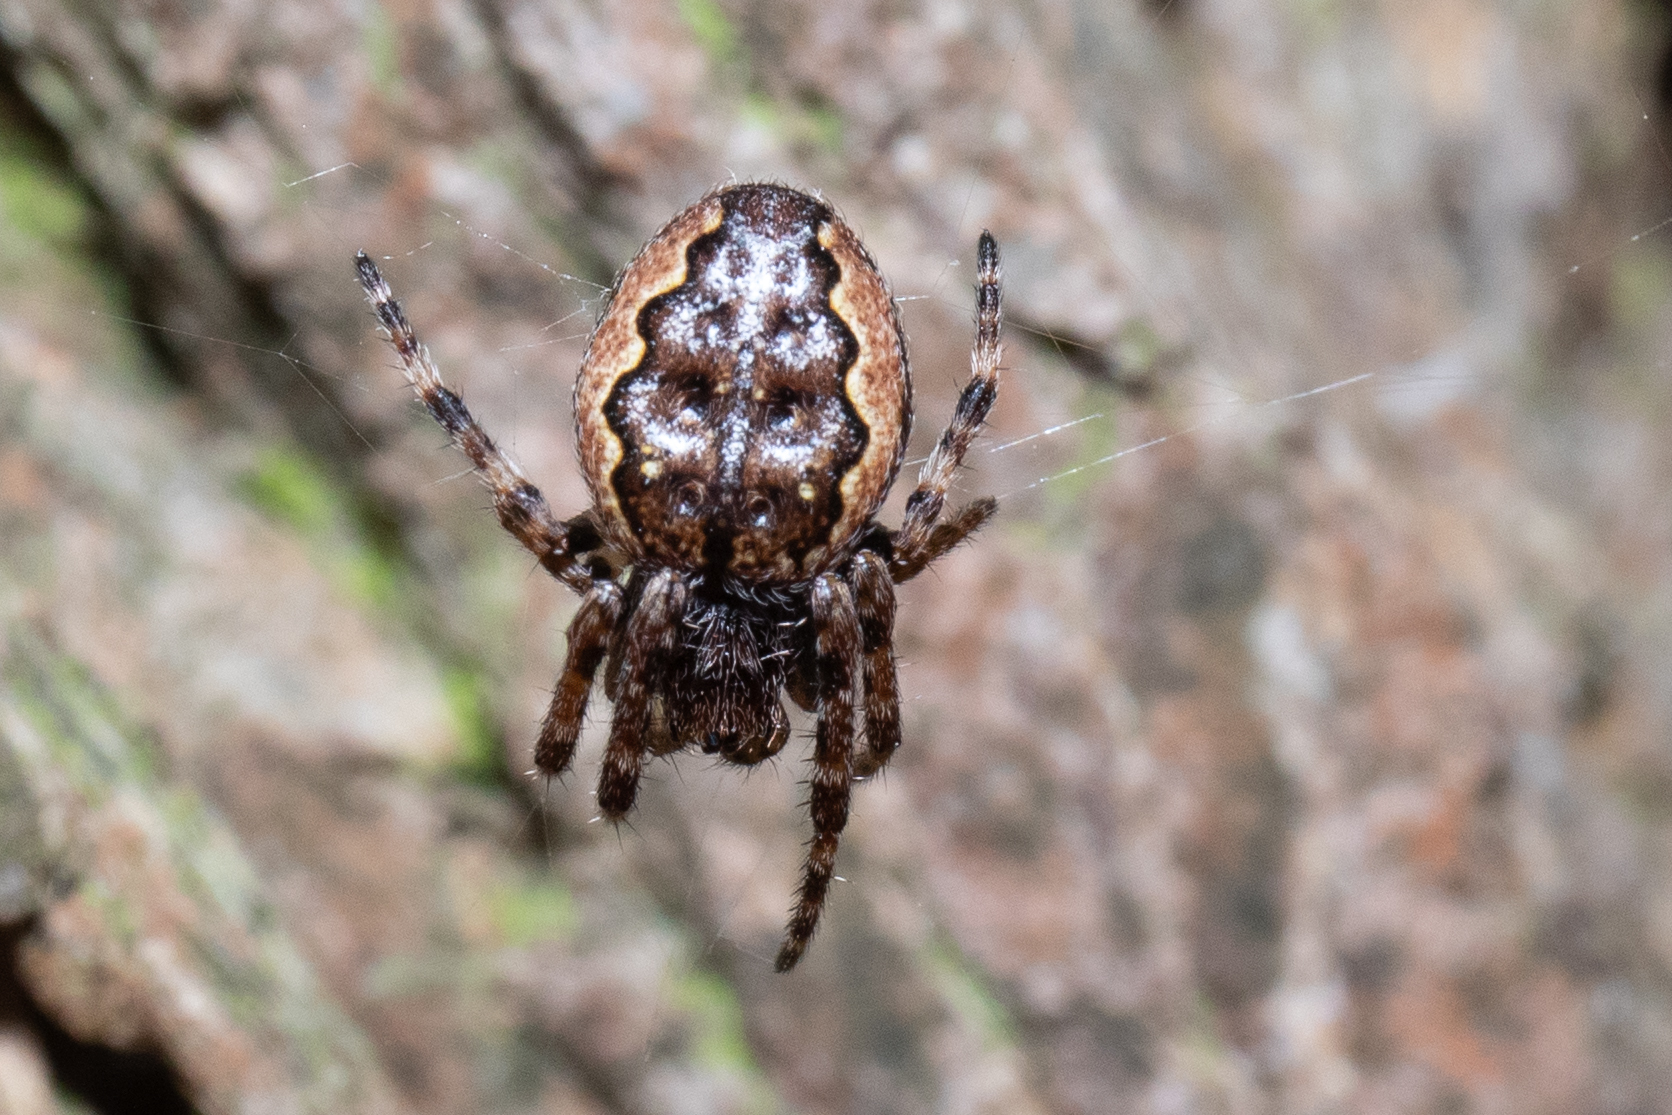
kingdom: Animalia
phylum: Arthropoda
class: Arachnida
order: Araneae
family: Araneidae
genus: Nuctenea
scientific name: Nuctenea umbratica
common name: Toad spider
